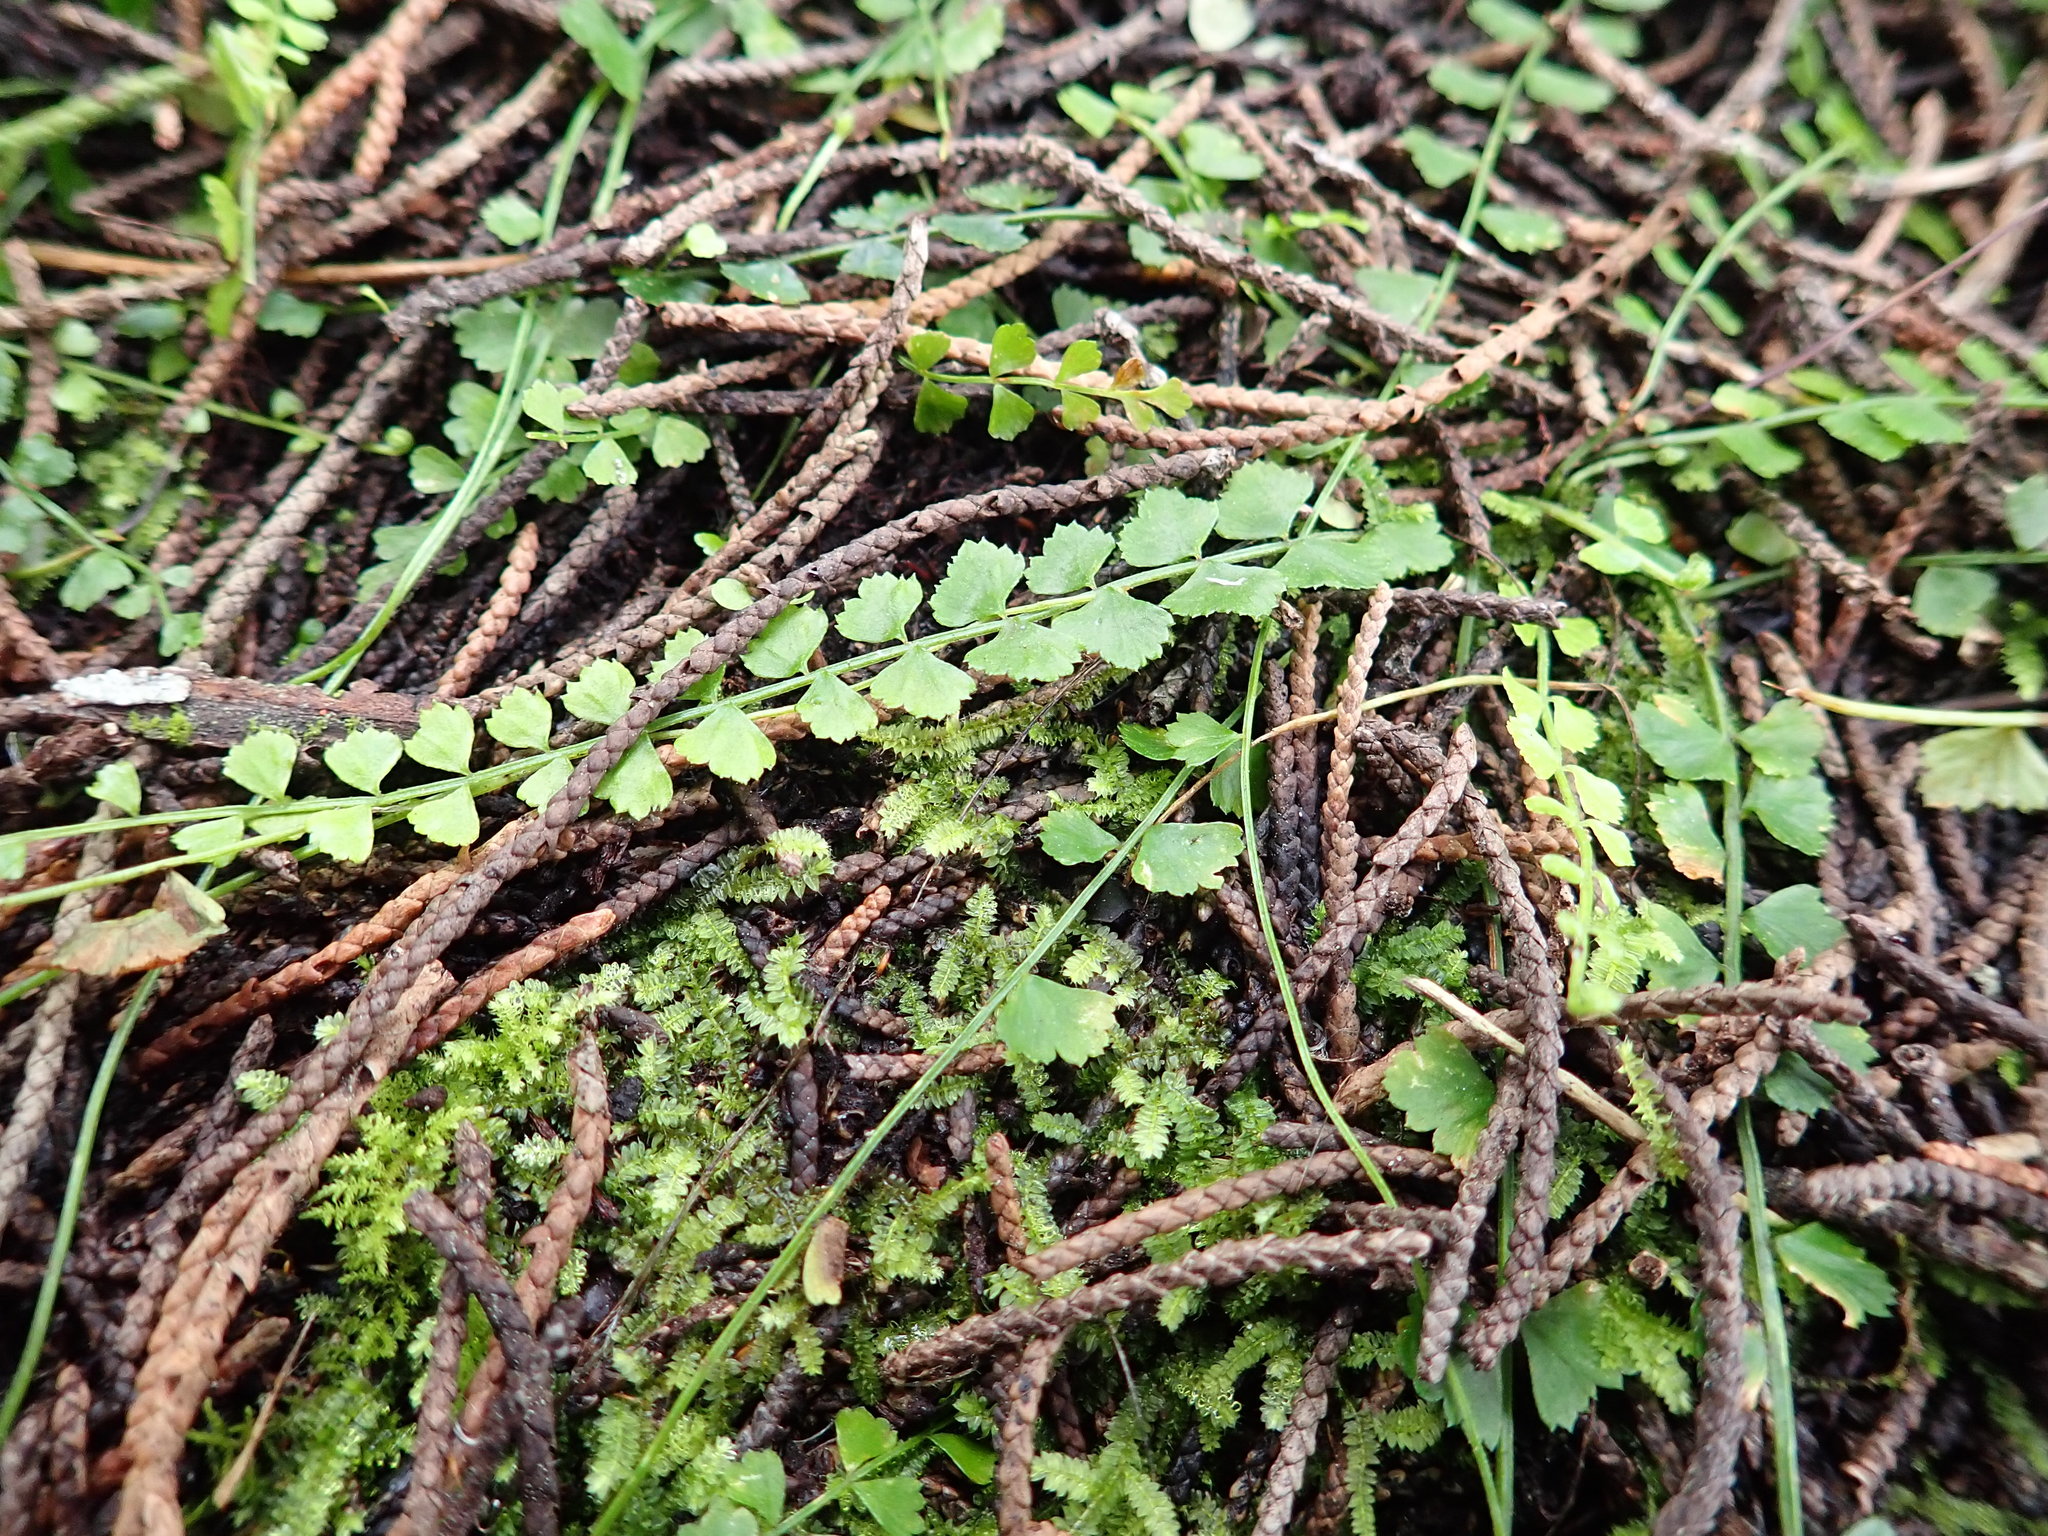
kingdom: Plantae
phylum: Tracheophyta
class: Polypodiopsida
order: Polypodiales
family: Aspleniaceae
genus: Asplenium
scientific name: Asplenium flabellifolium
